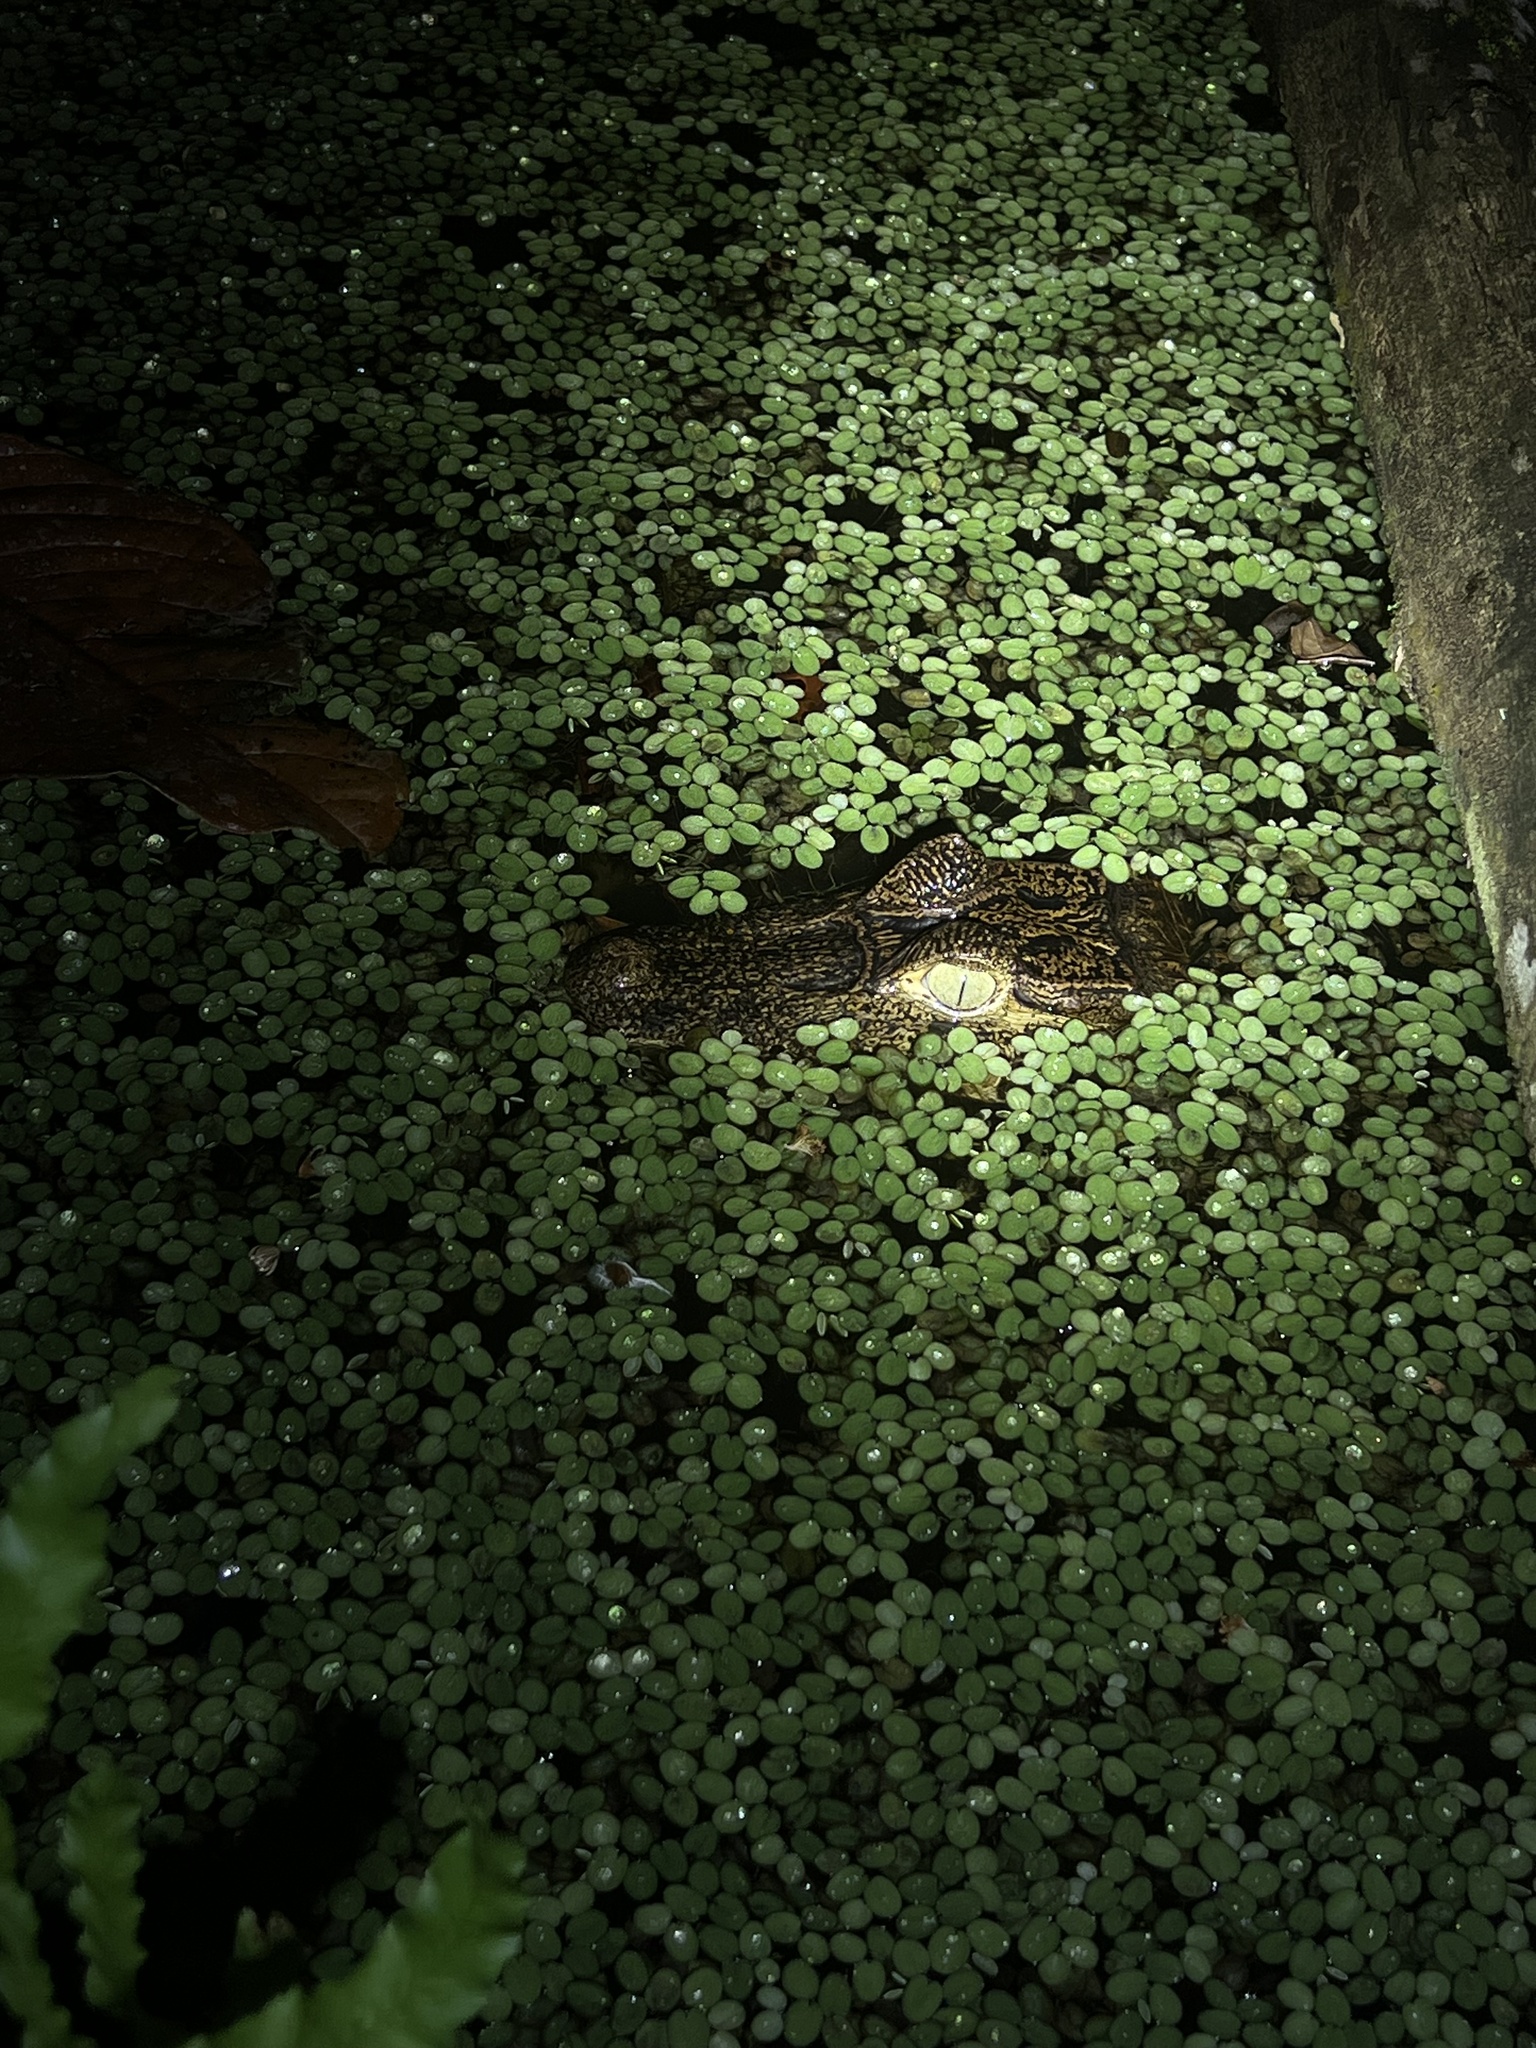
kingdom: Animalia
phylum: Chordata
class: Crocodylia
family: Alligatoridae
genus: Caiman
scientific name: Caiman crocodilus
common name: Common caiman
